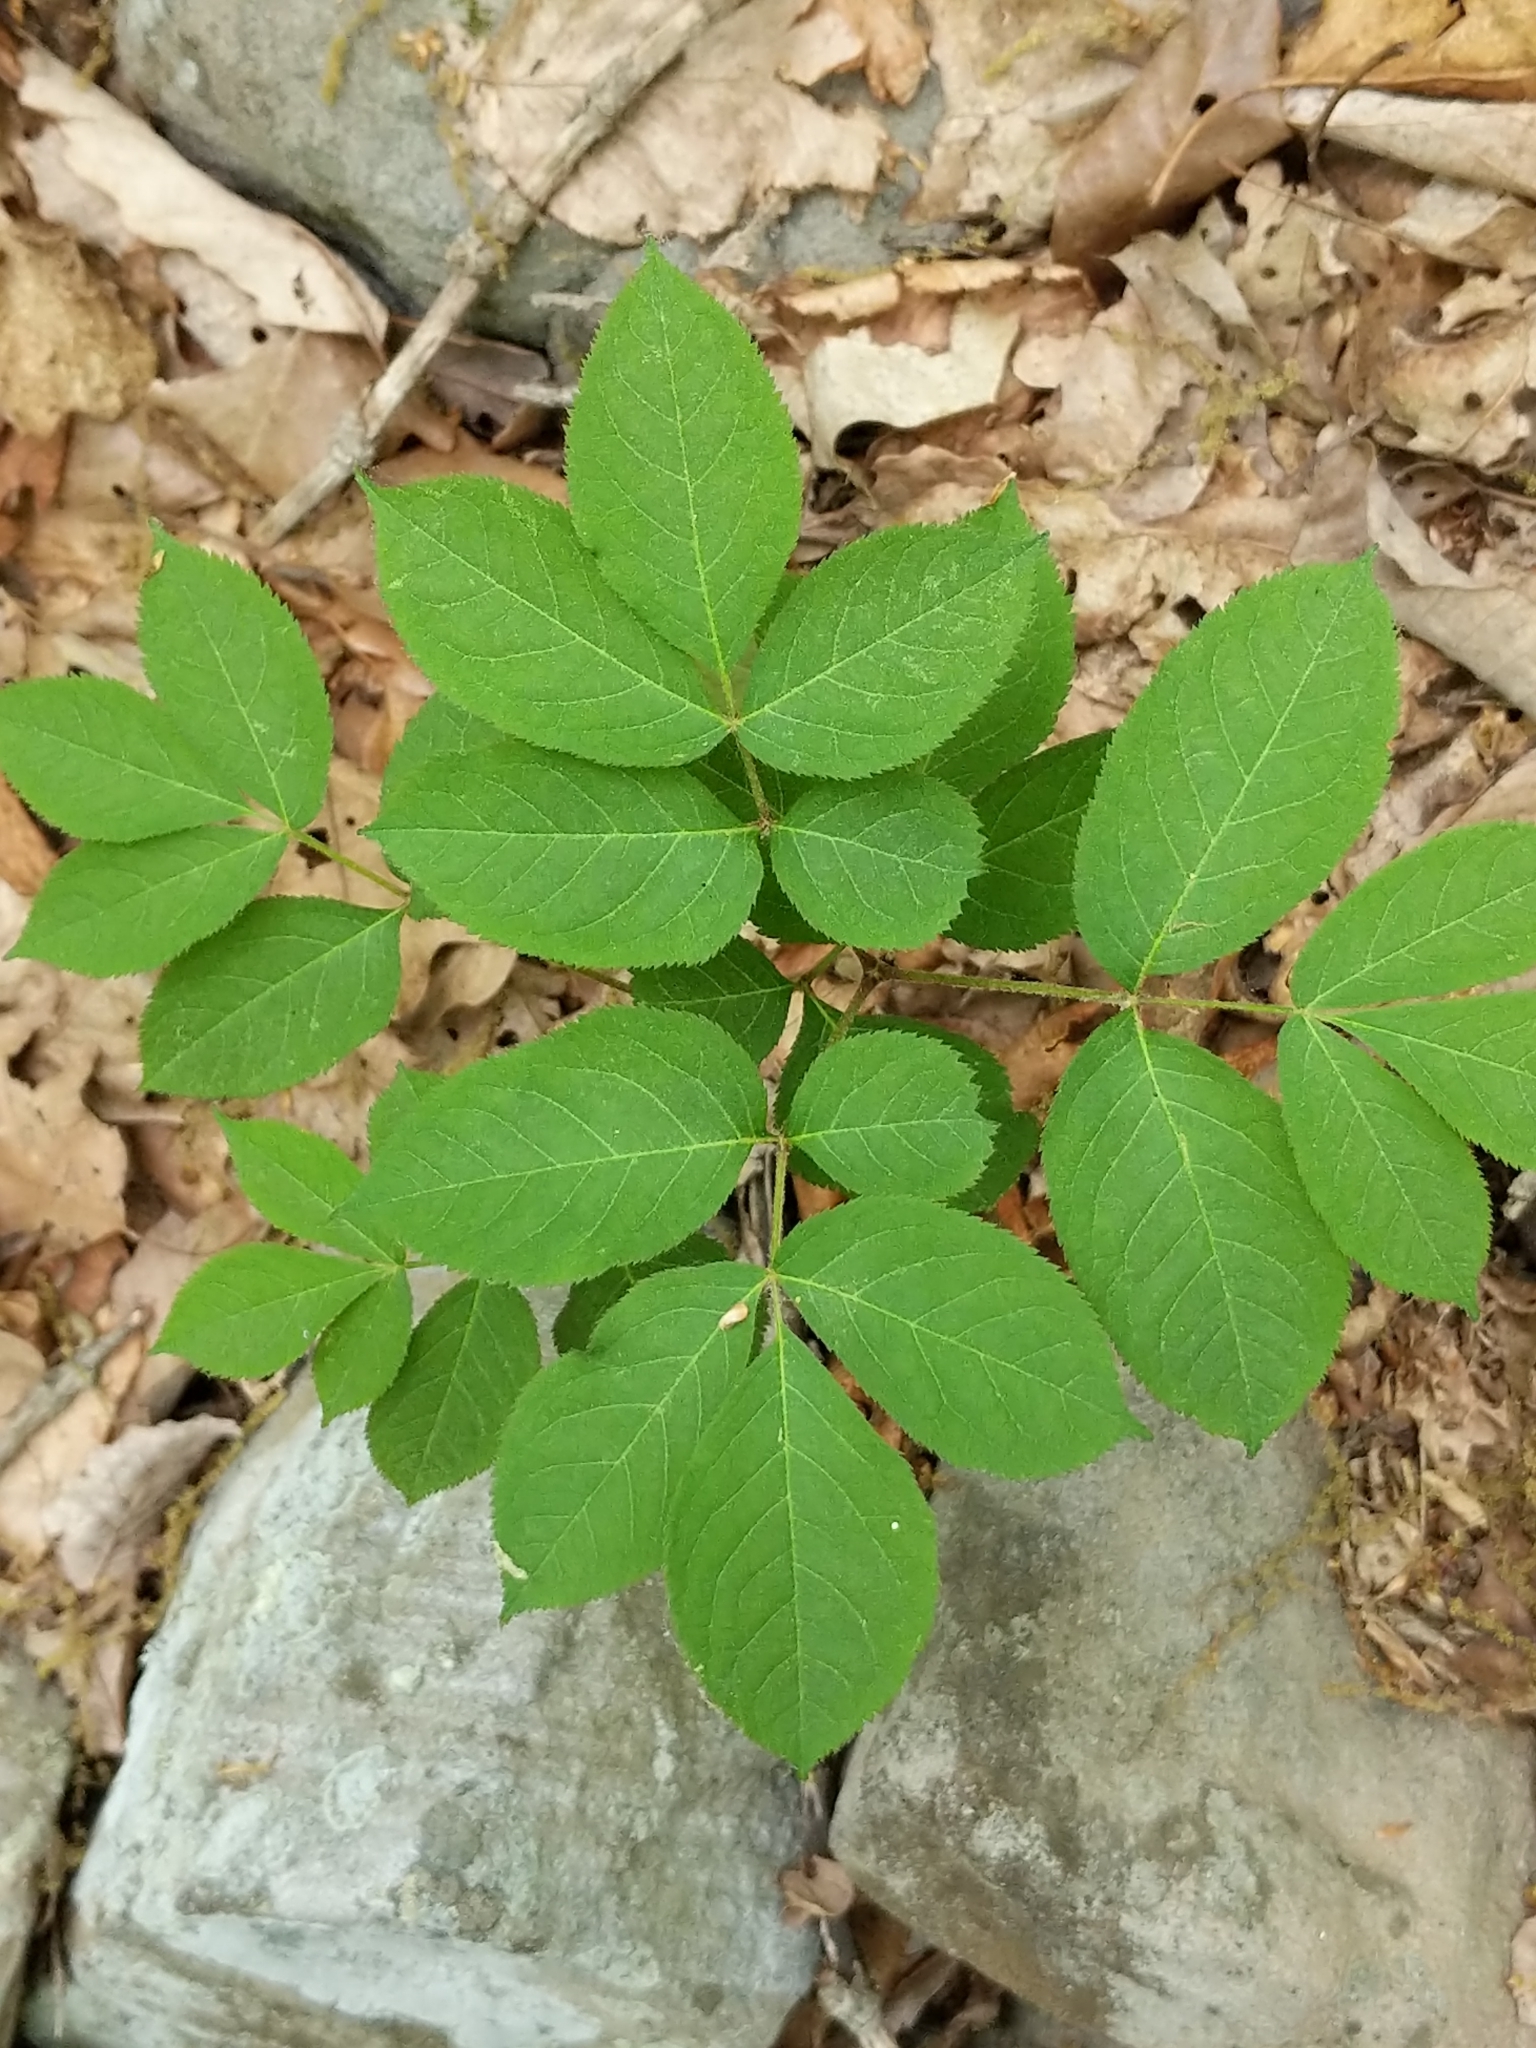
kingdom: Plantae
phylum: Tracheophyta
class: Magnoliopsida
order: Apiales
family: Araliaceae
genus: Aralia
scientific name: Aralia nudicaulis
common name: Wild sarsaparilla
